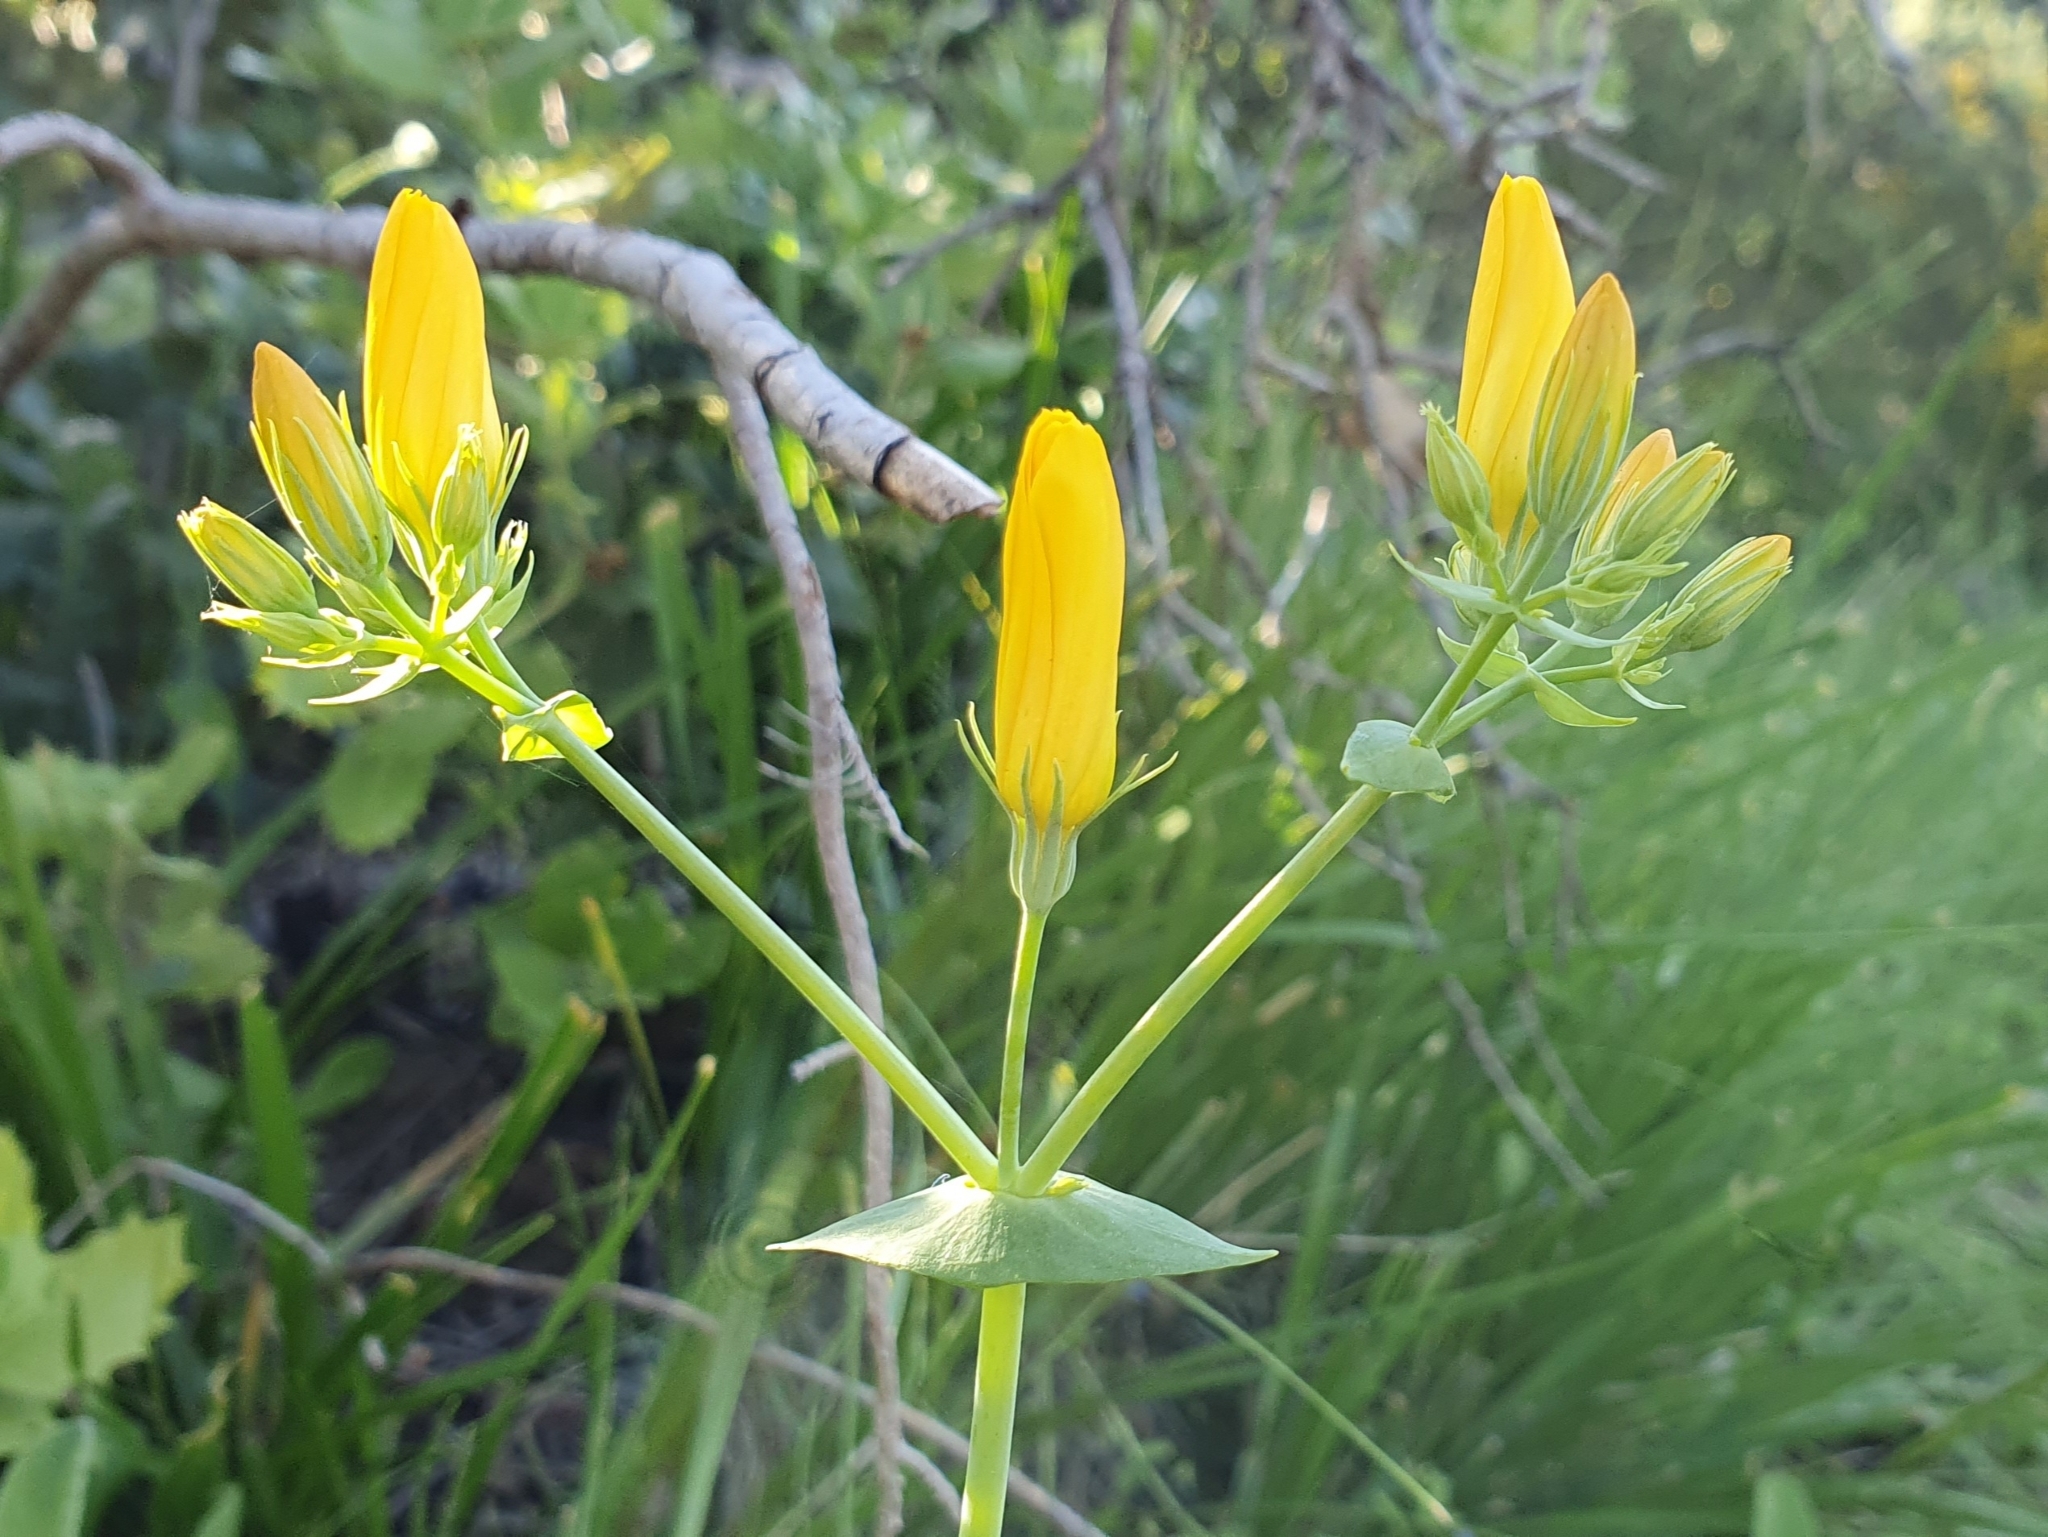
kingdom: Plantae
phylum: Tracheophyta
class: Magnoliopsida
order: Gentianales
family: Gentianaceae
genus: Blackstonia
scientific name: Blackstonia grandiflora
